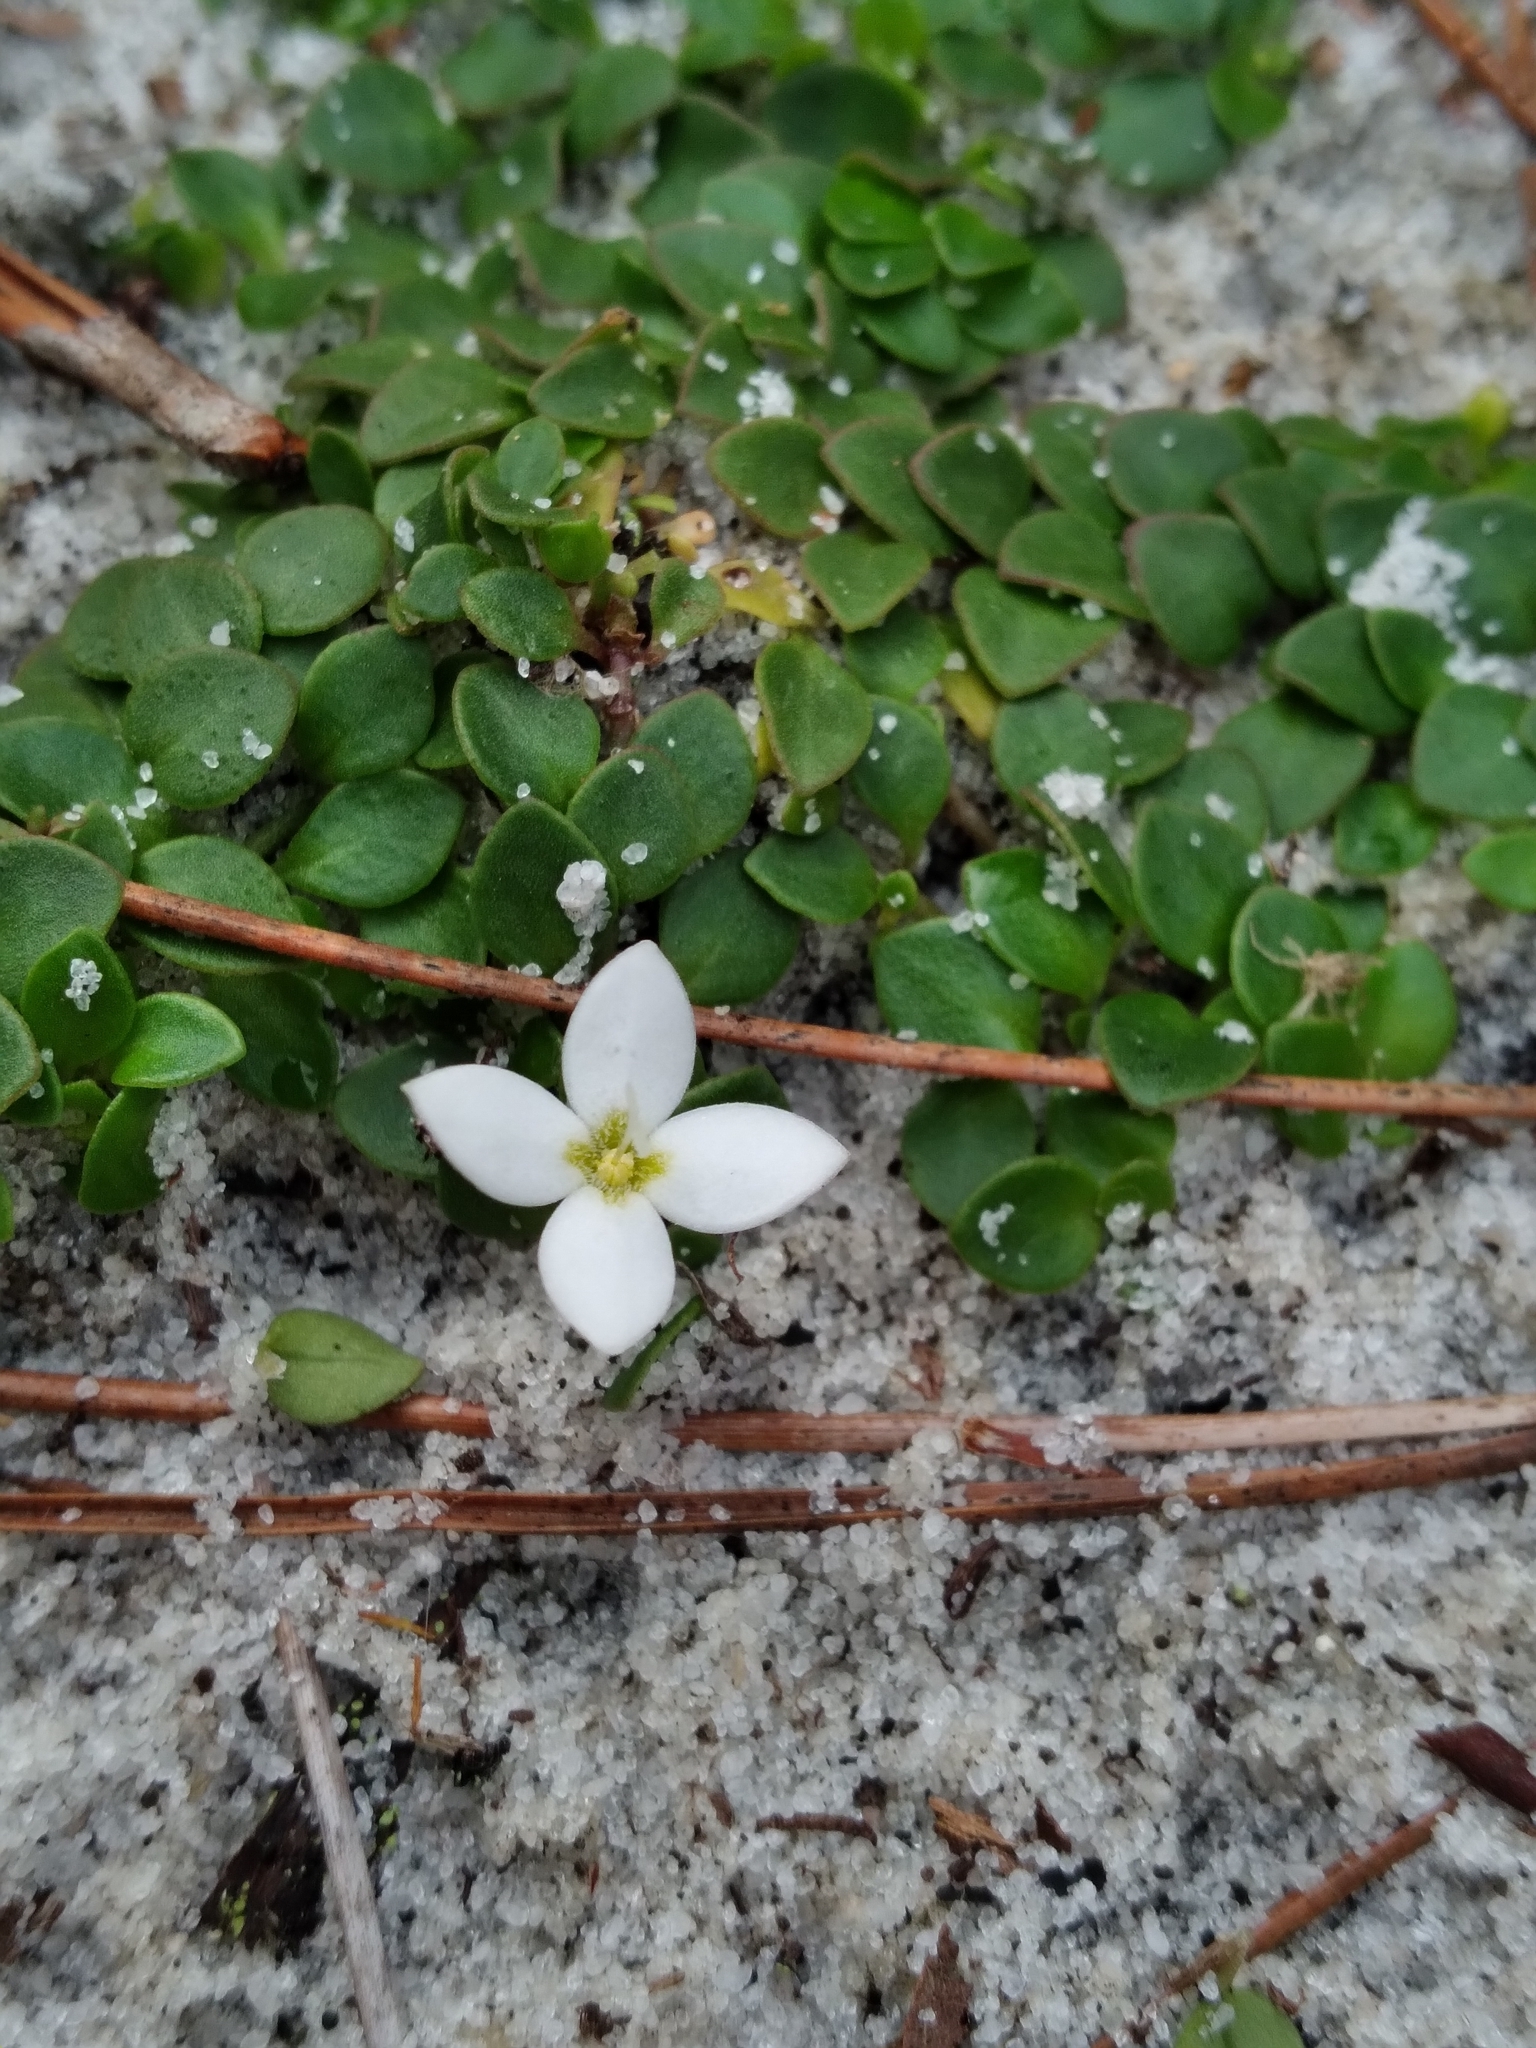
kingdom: Plantae
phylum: Tracheophyta
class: Magnoliopsida
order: Gentianales
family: Rubiaceae
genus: Houstonia
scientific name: Houstonia procumbens
